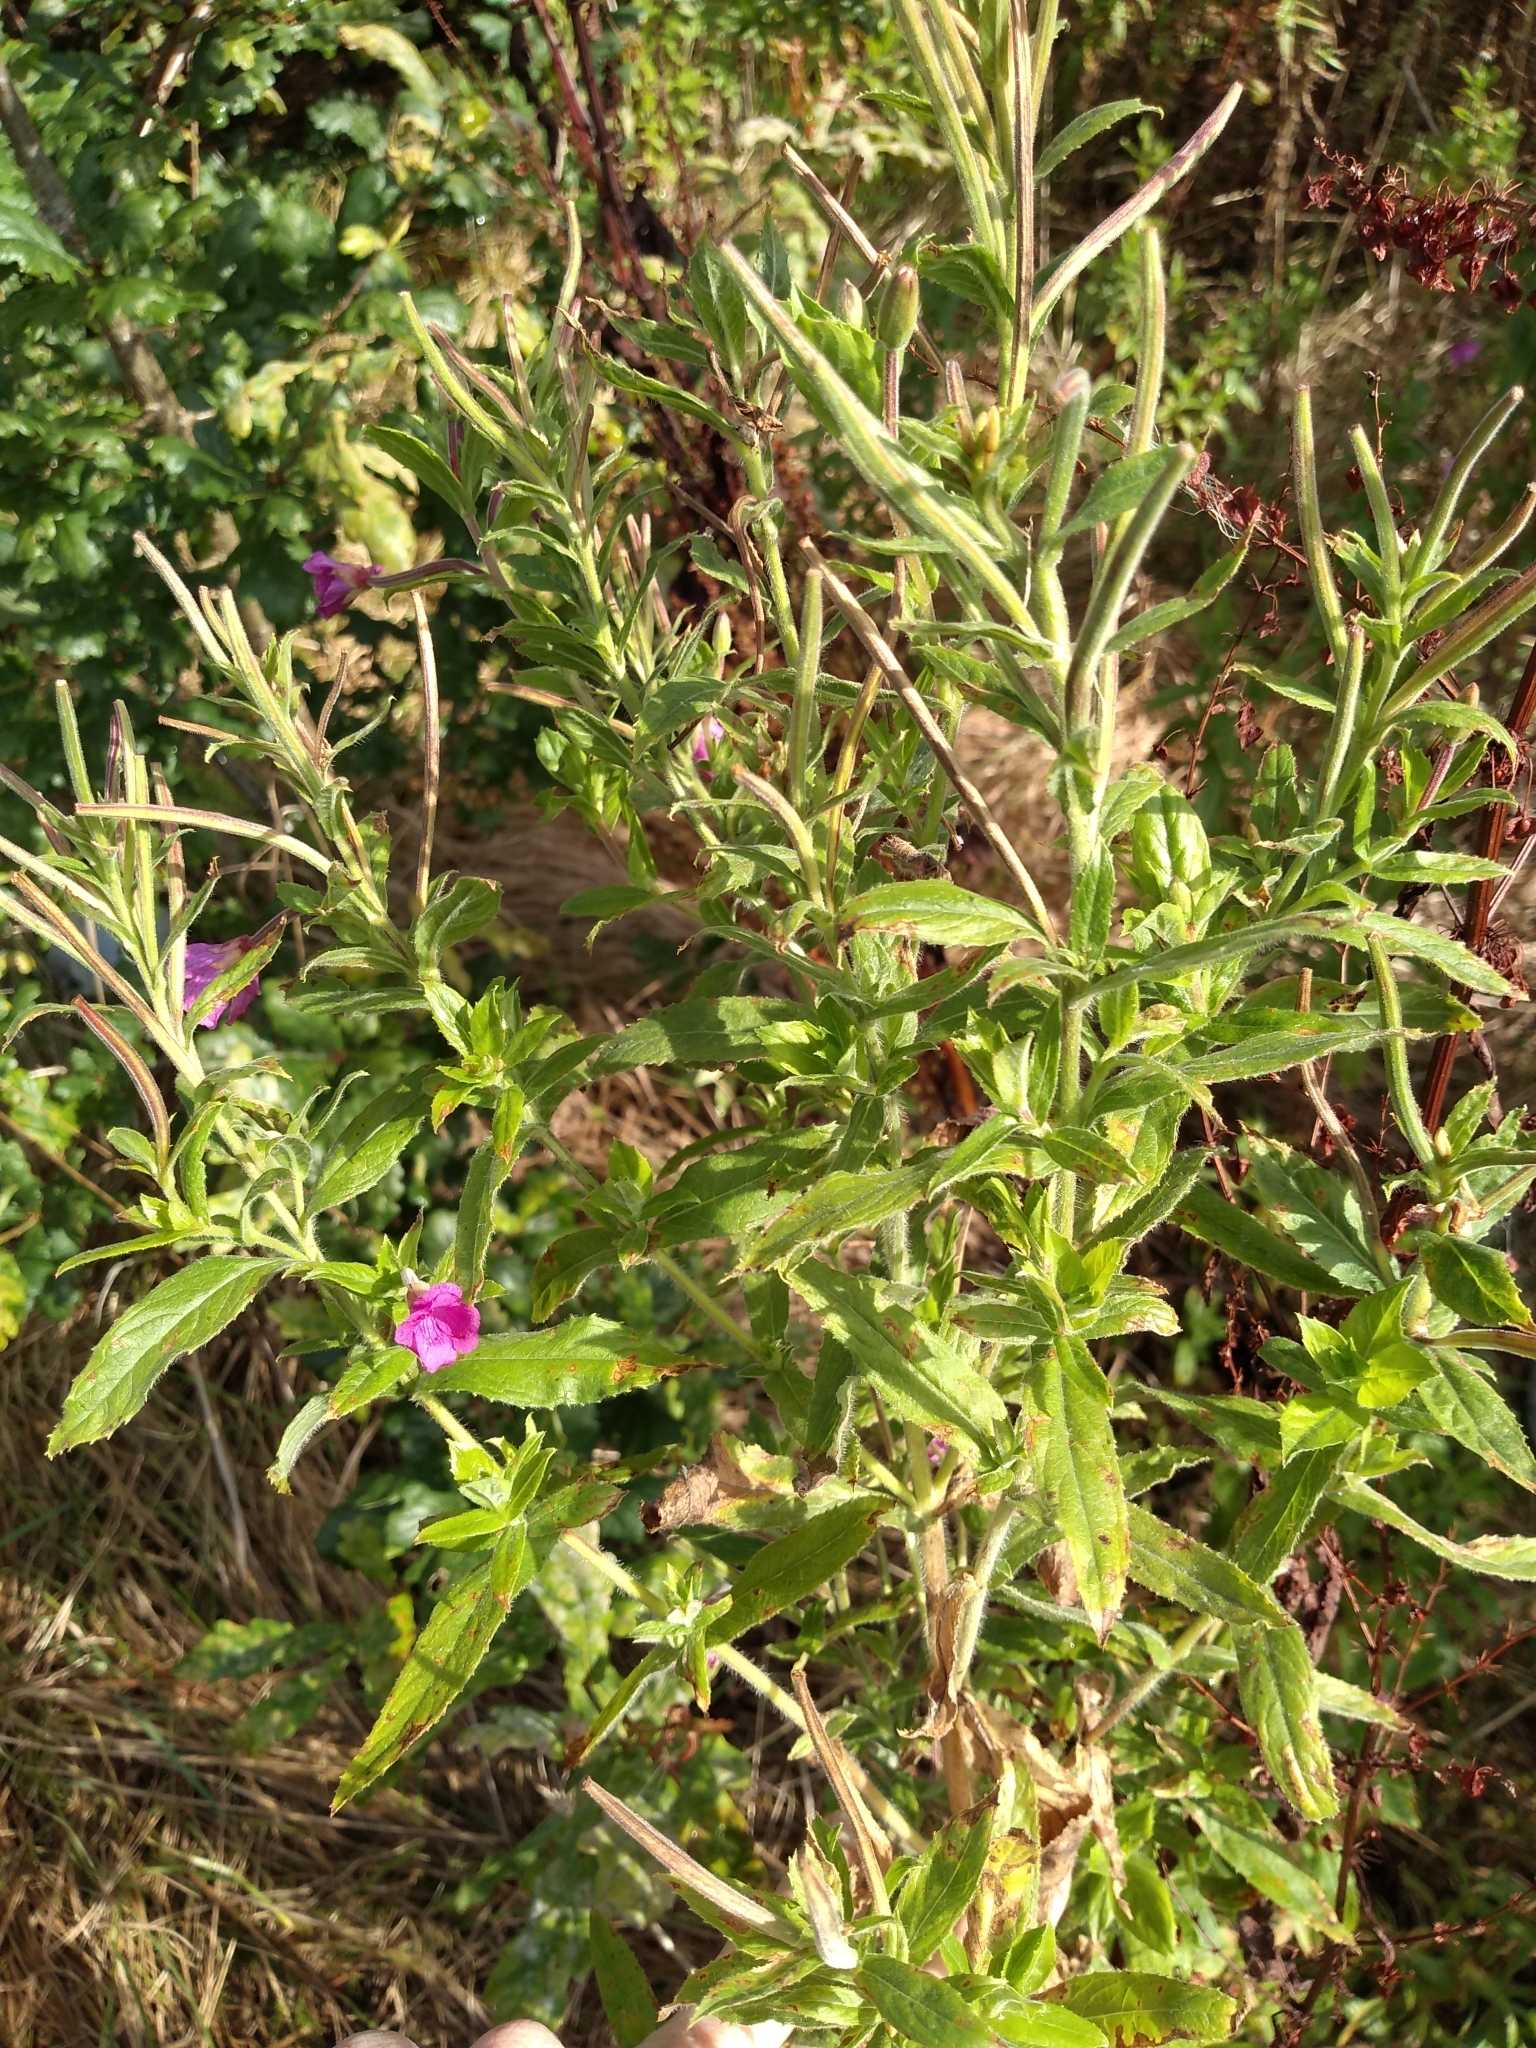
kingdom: Plantae
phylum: Tracheophyta
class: Magnoliopsida
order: Myrtales
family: Onagraceae
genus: Epilobium
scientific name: Epilobium hirsutum
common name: Great willowherb
